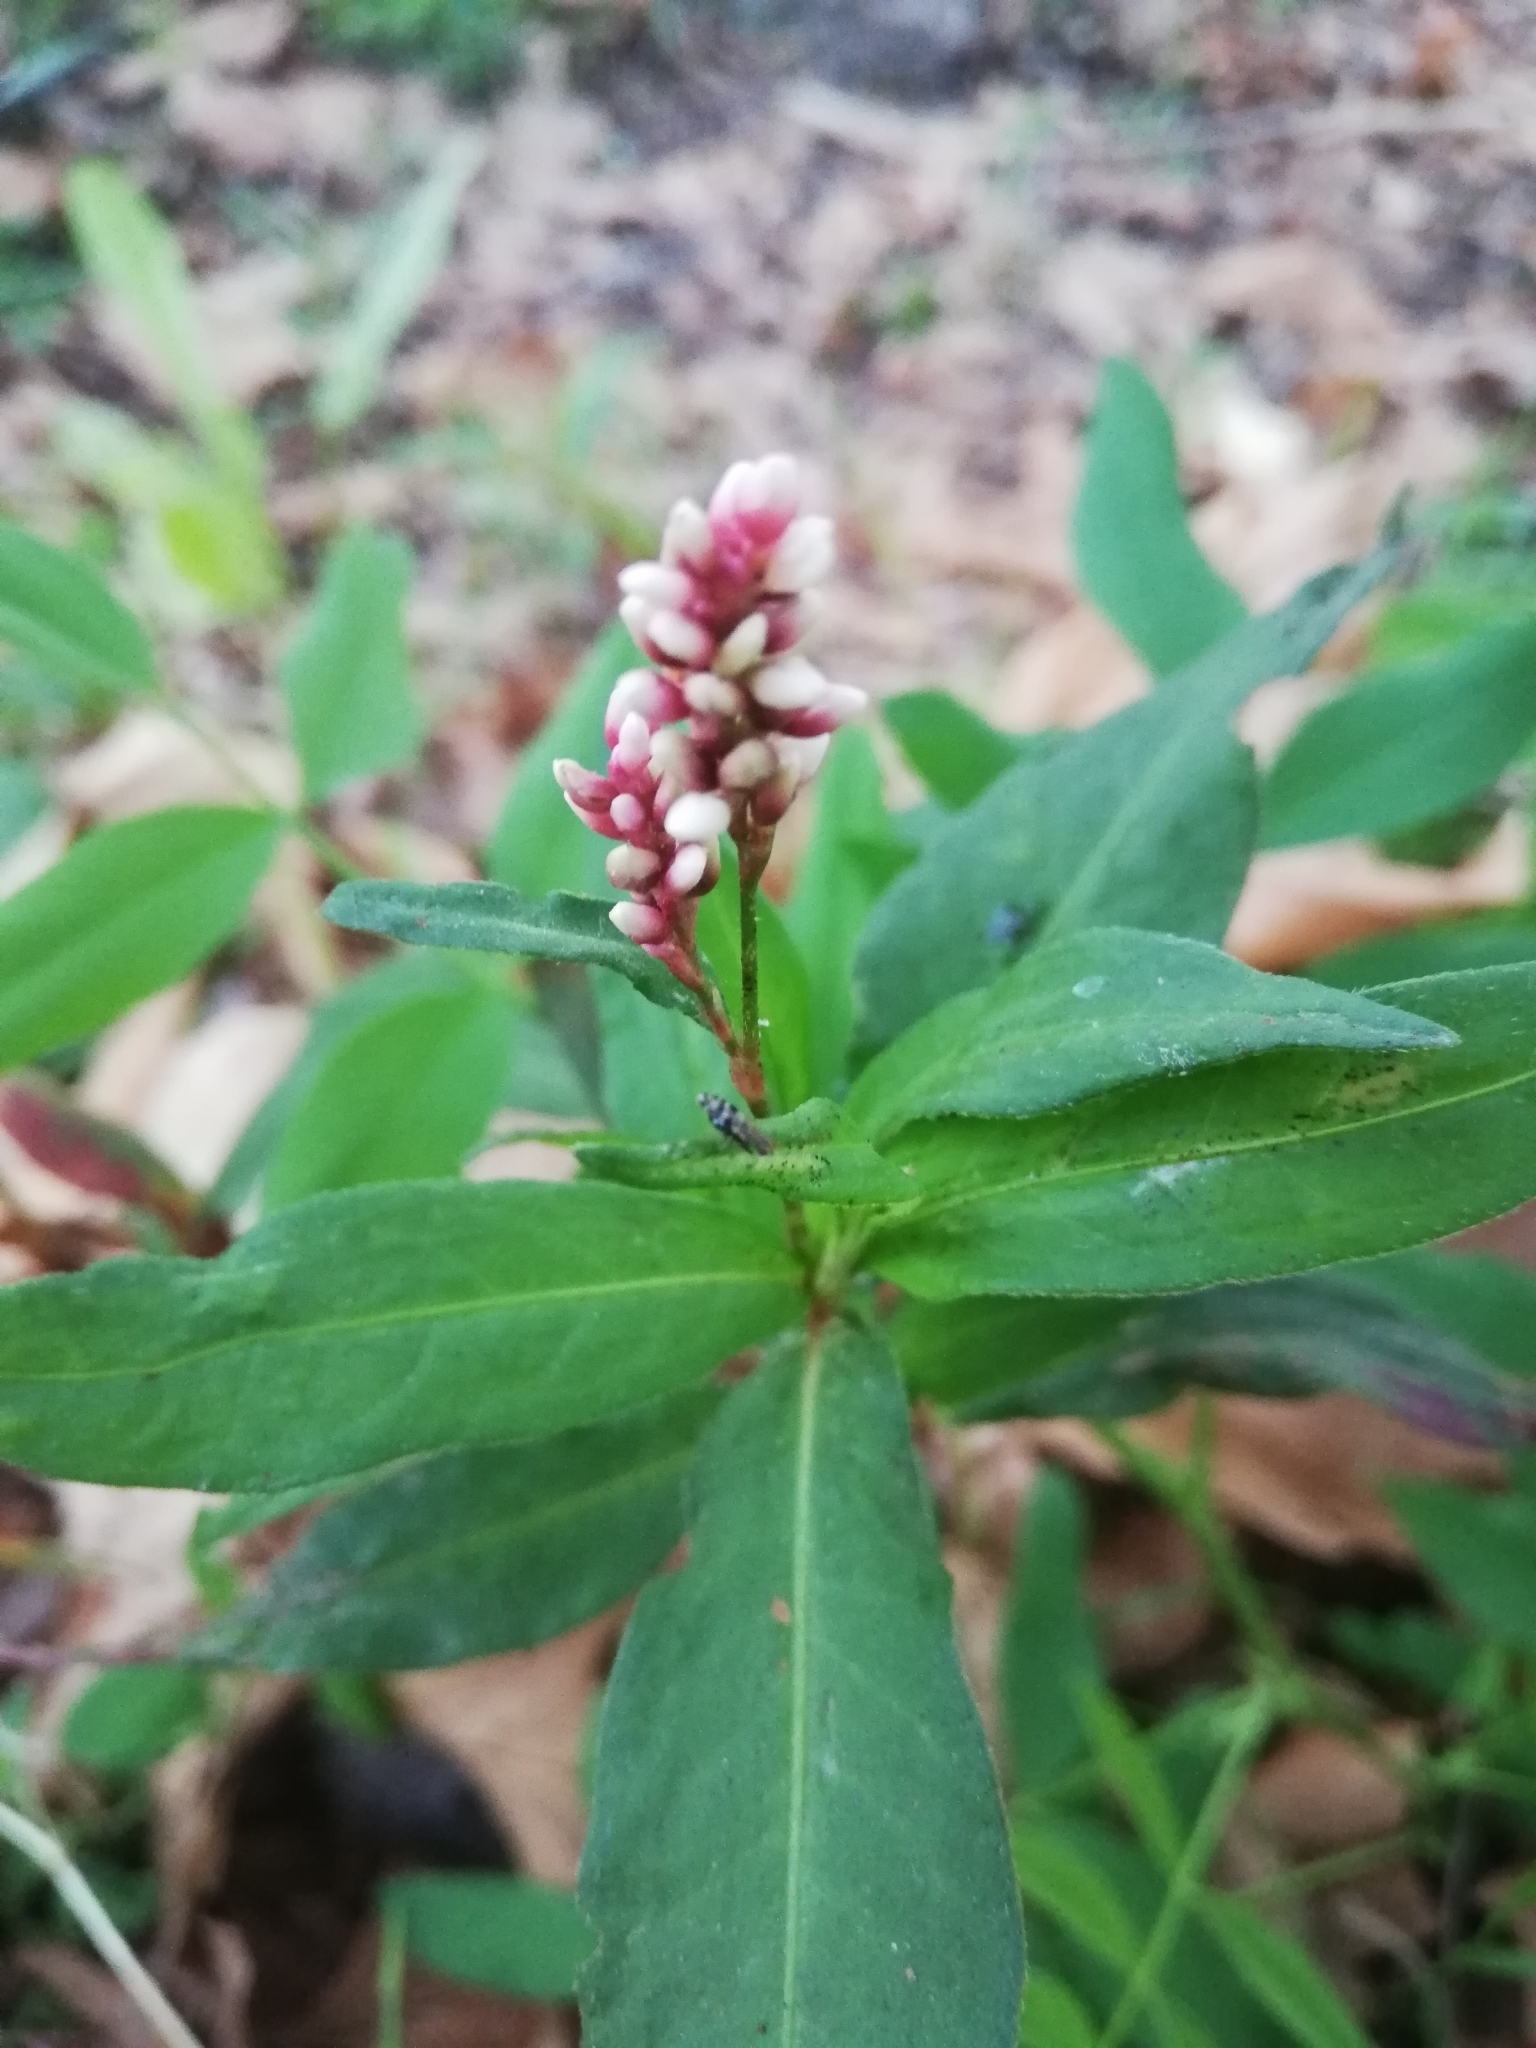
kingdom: Plantae
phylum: Tracheophyta
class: Magnoliopsida
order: Caryophyllales
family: Polygonaceae
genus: Persicaria
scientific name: Persicaria maculosa
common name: Redshank
